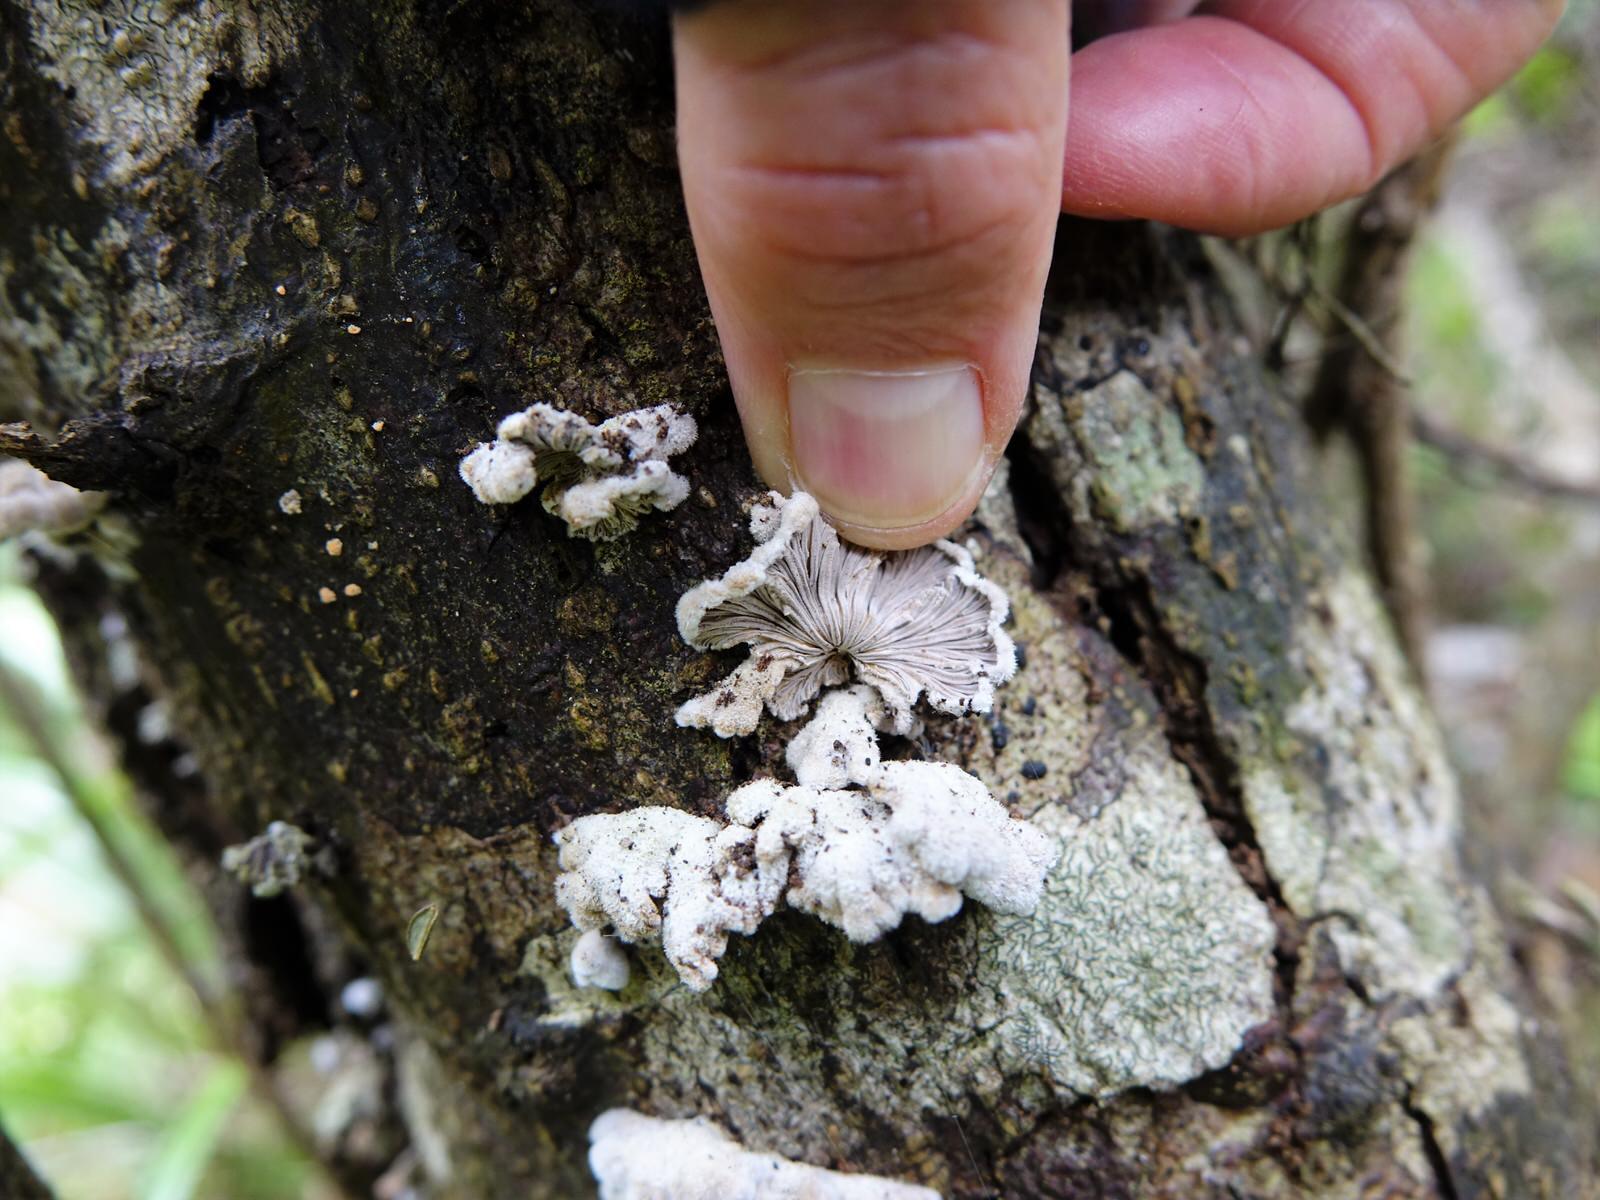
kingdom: Fungi
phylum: Basidiomycota
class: Agaricomycetes
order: Agaricales
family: Schizophyllaceae
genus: Schizophyllum
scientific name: Schizophyllum commune
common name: Common porecrust
